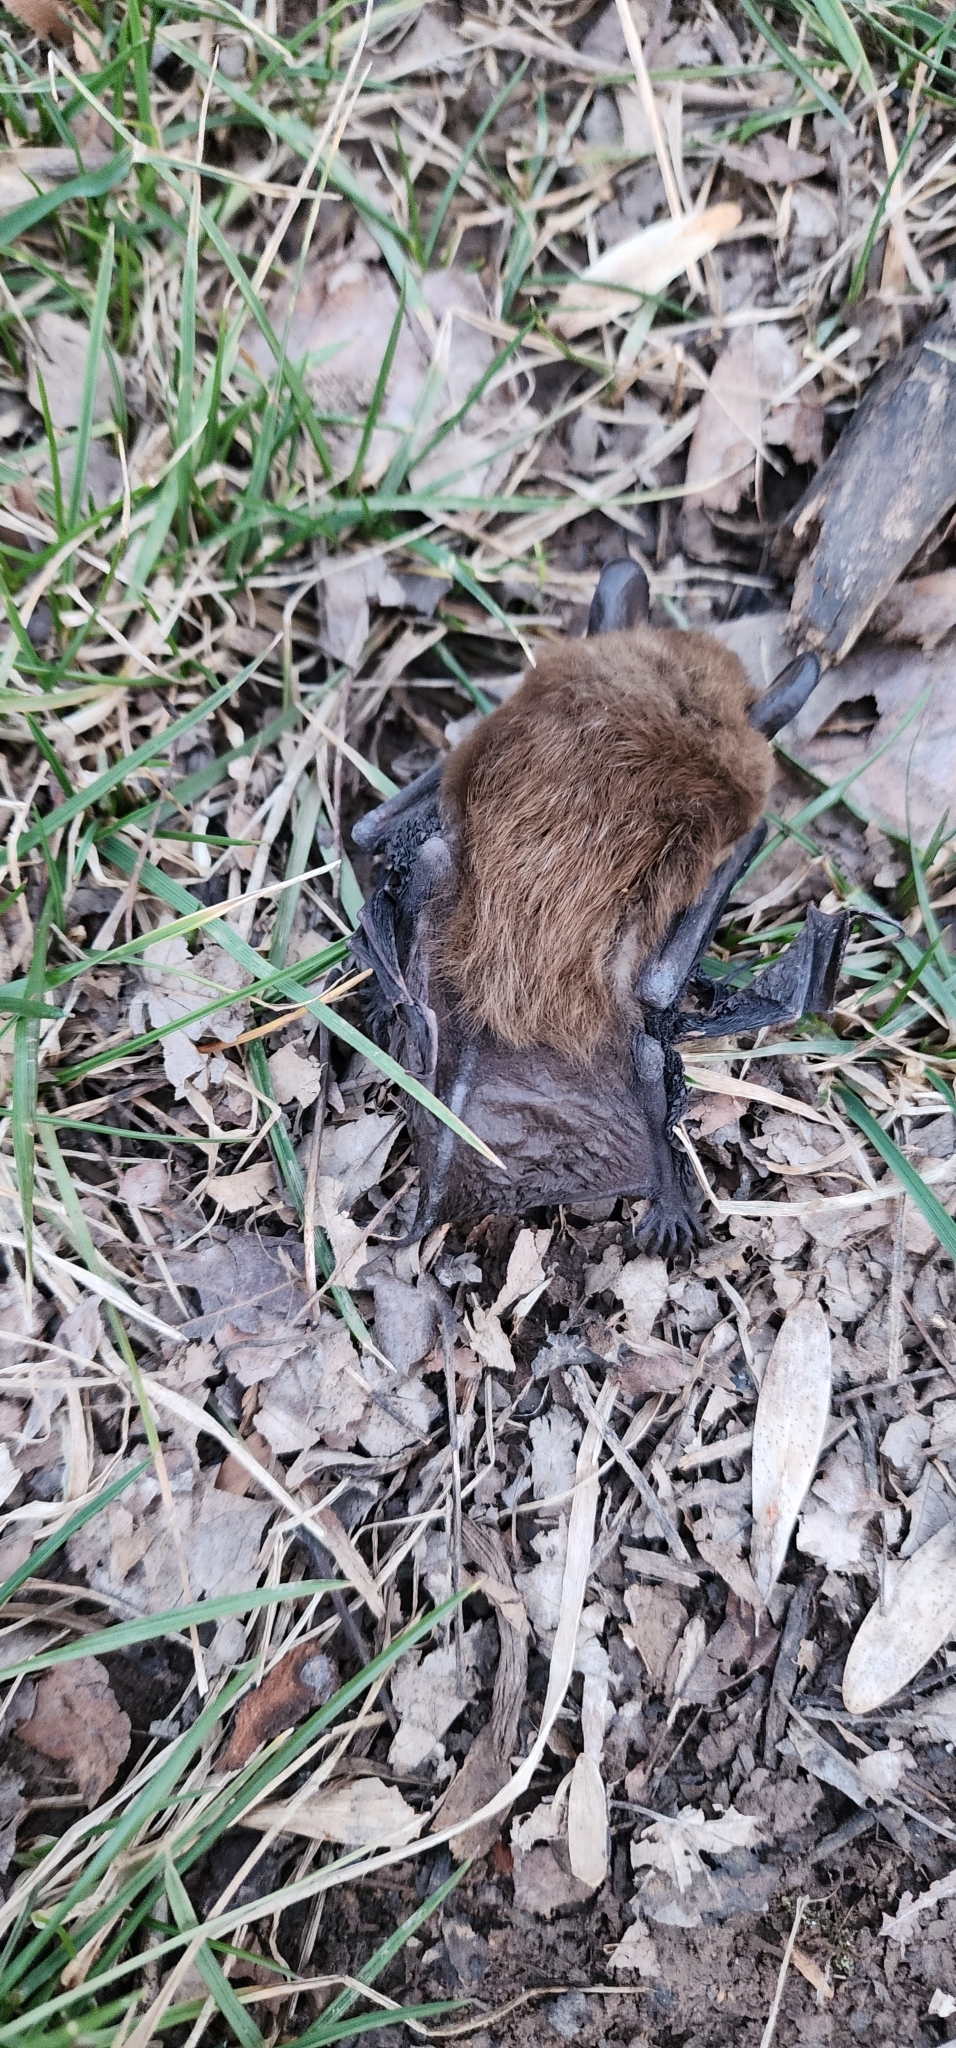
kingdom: Animalia
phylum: Chordata
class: Mammalia
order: Chiroptera
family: Vespertilionidae
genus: Eptesicus
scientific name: Eptesicus fuscus
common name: Big brown bat
